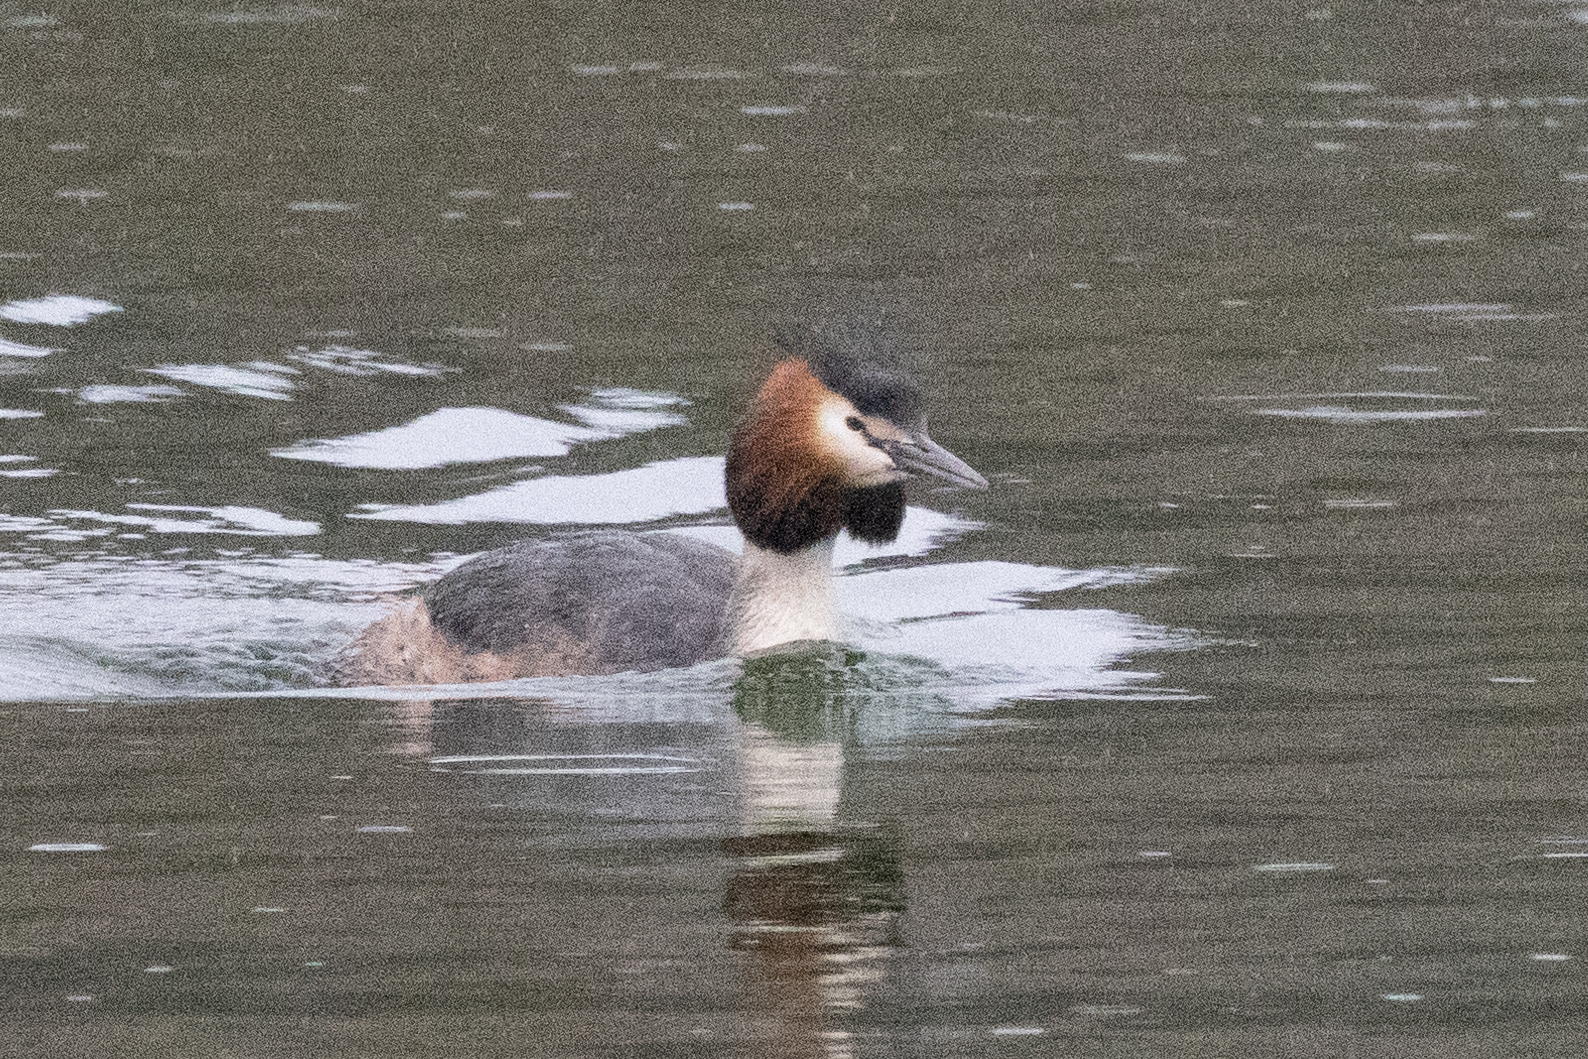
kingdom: Animalia
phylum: Chordata
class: Aves
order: Podicipediformes
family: Podicipedidae
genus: Podiceps
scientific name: Podiceps cristatus
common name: Great crested grebe
